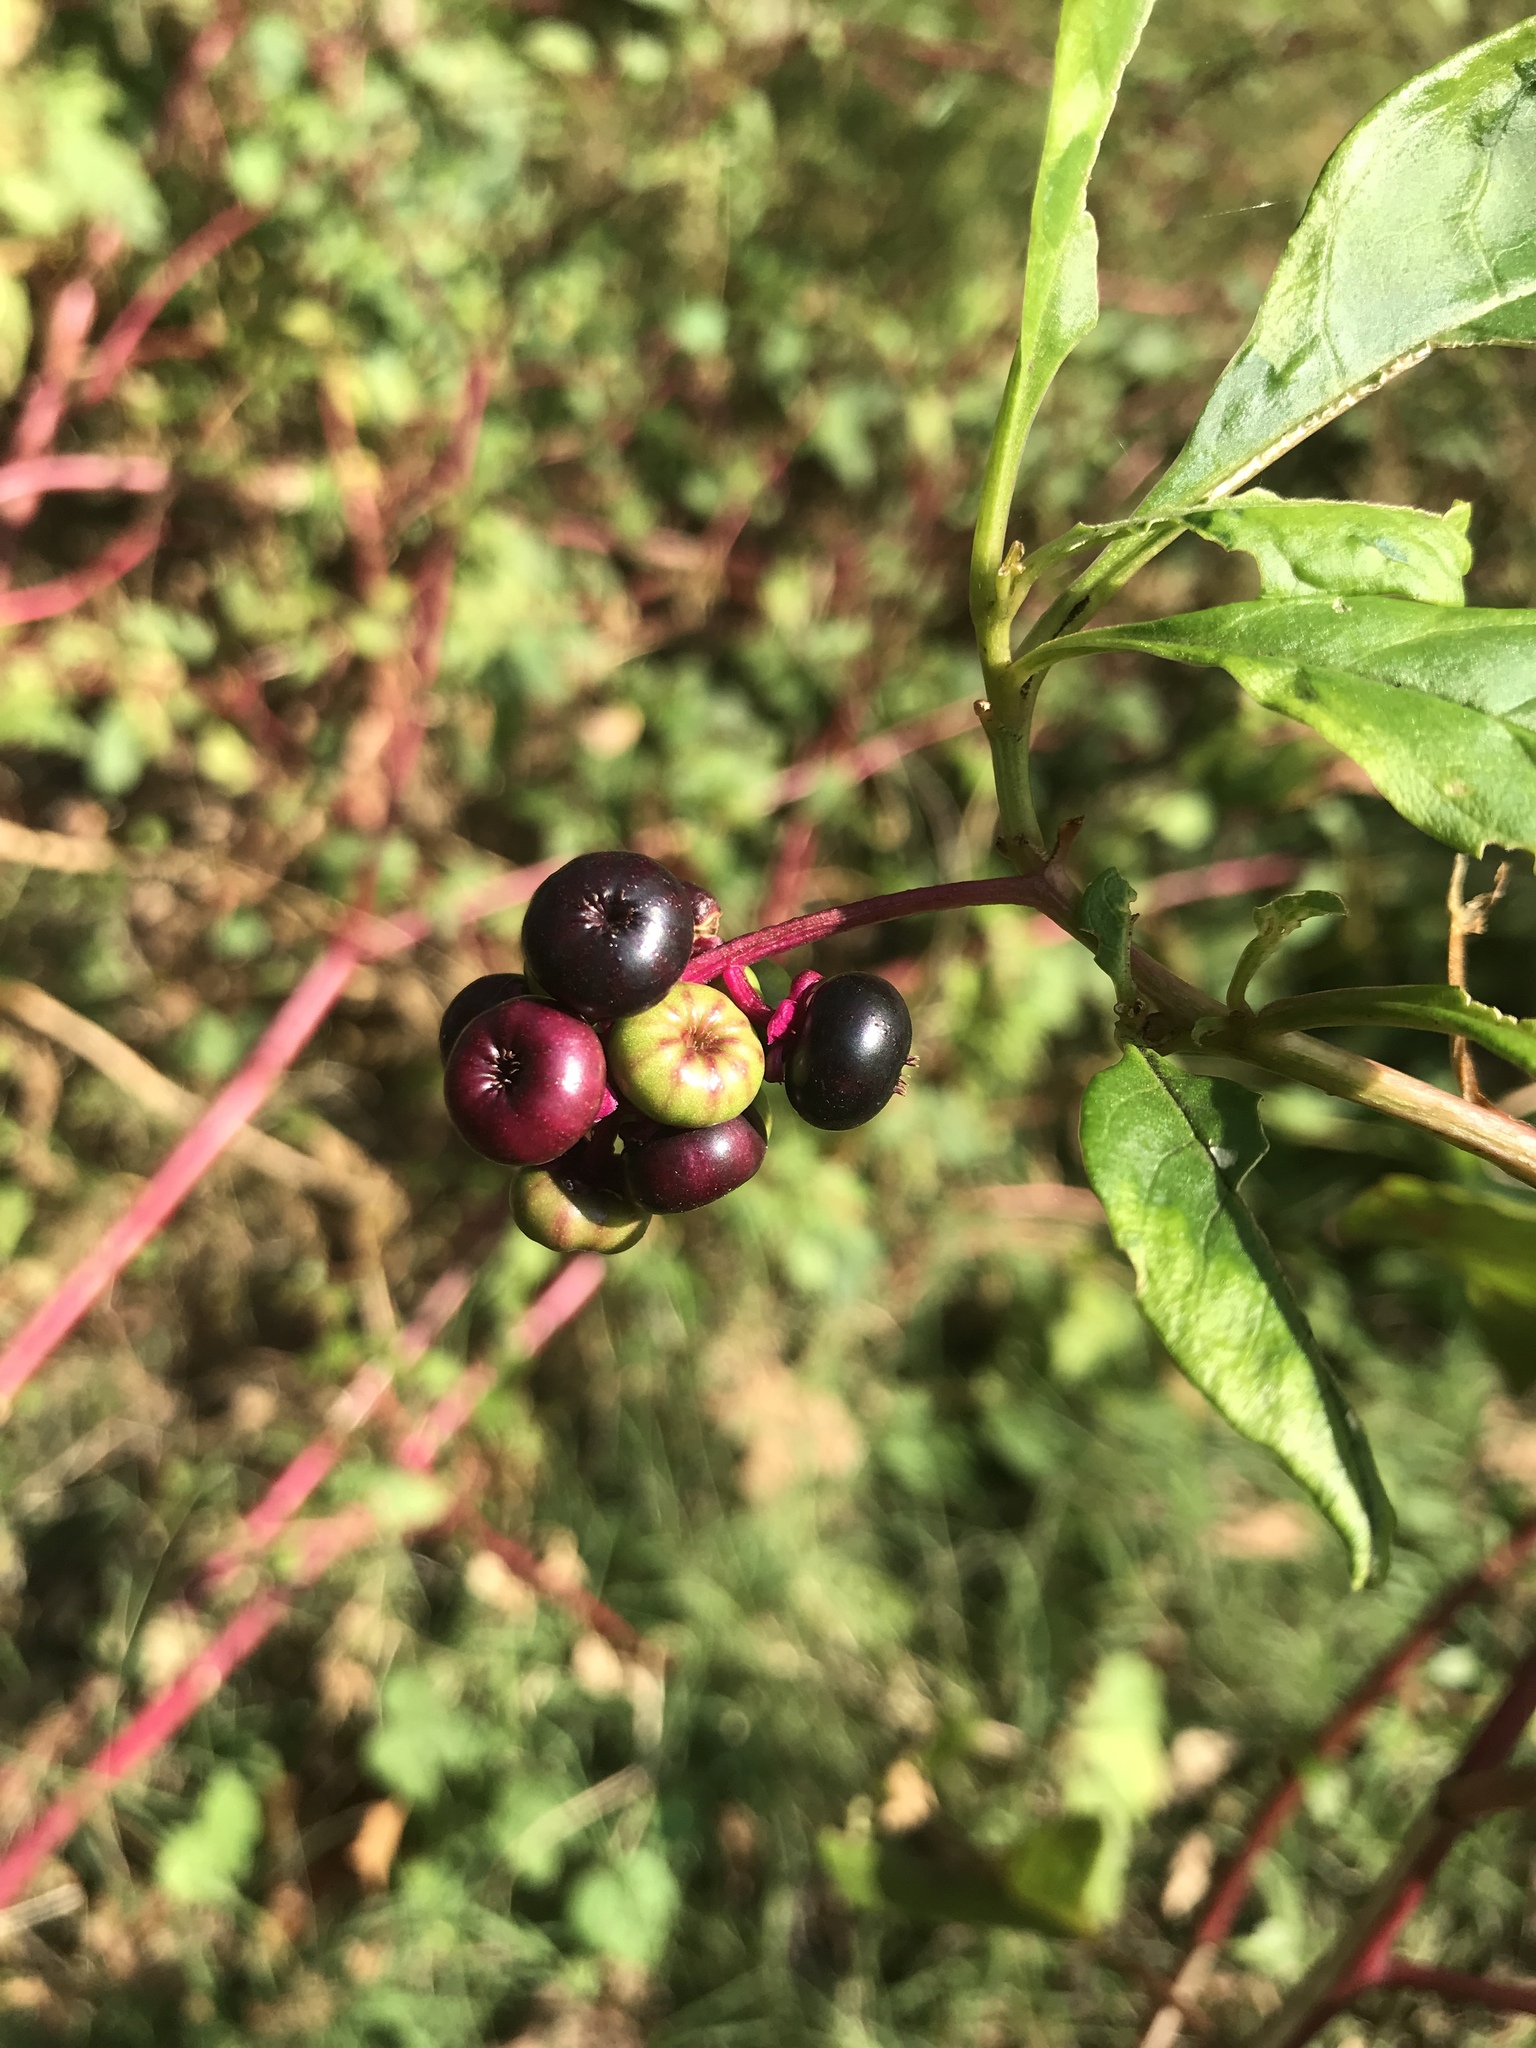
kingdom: Plantae
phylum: Tracheophyta
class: Magnoliopsida
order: Caryophyllales
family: Phytolaccaceae
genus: Phytolacca
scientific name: Phytolacca americana
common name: American pokeweed
